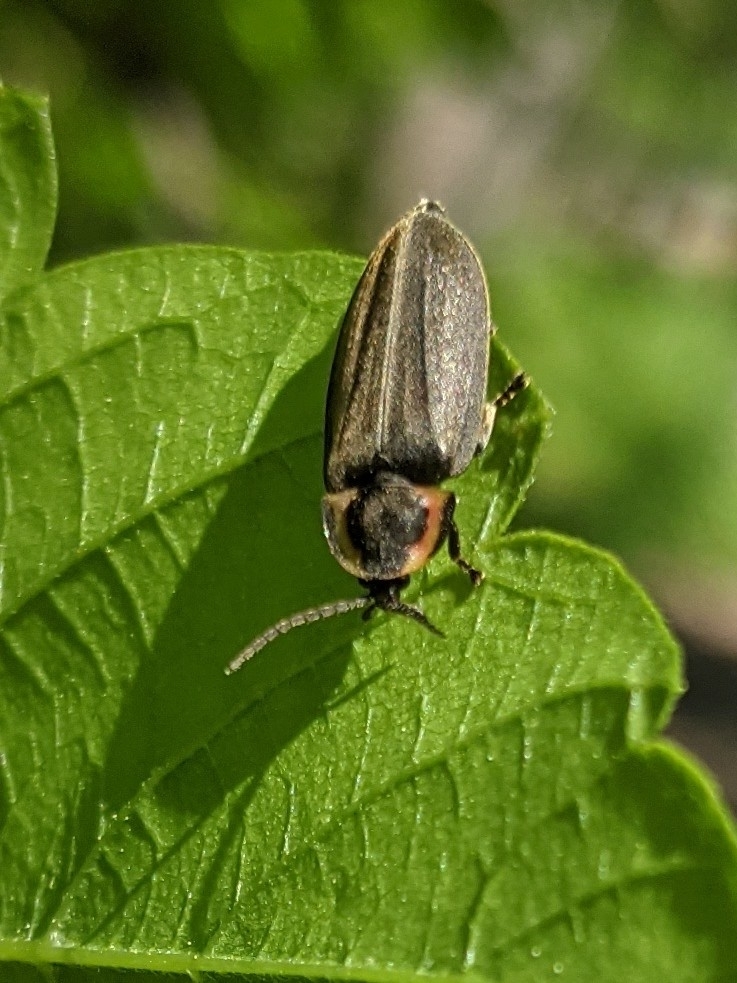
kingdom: Animalia
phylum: Arthropoda
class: Insecta
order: Coleoptera
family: Lampyridae
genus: Photinus
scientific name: Photinus corrusca
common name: Winter firefly
